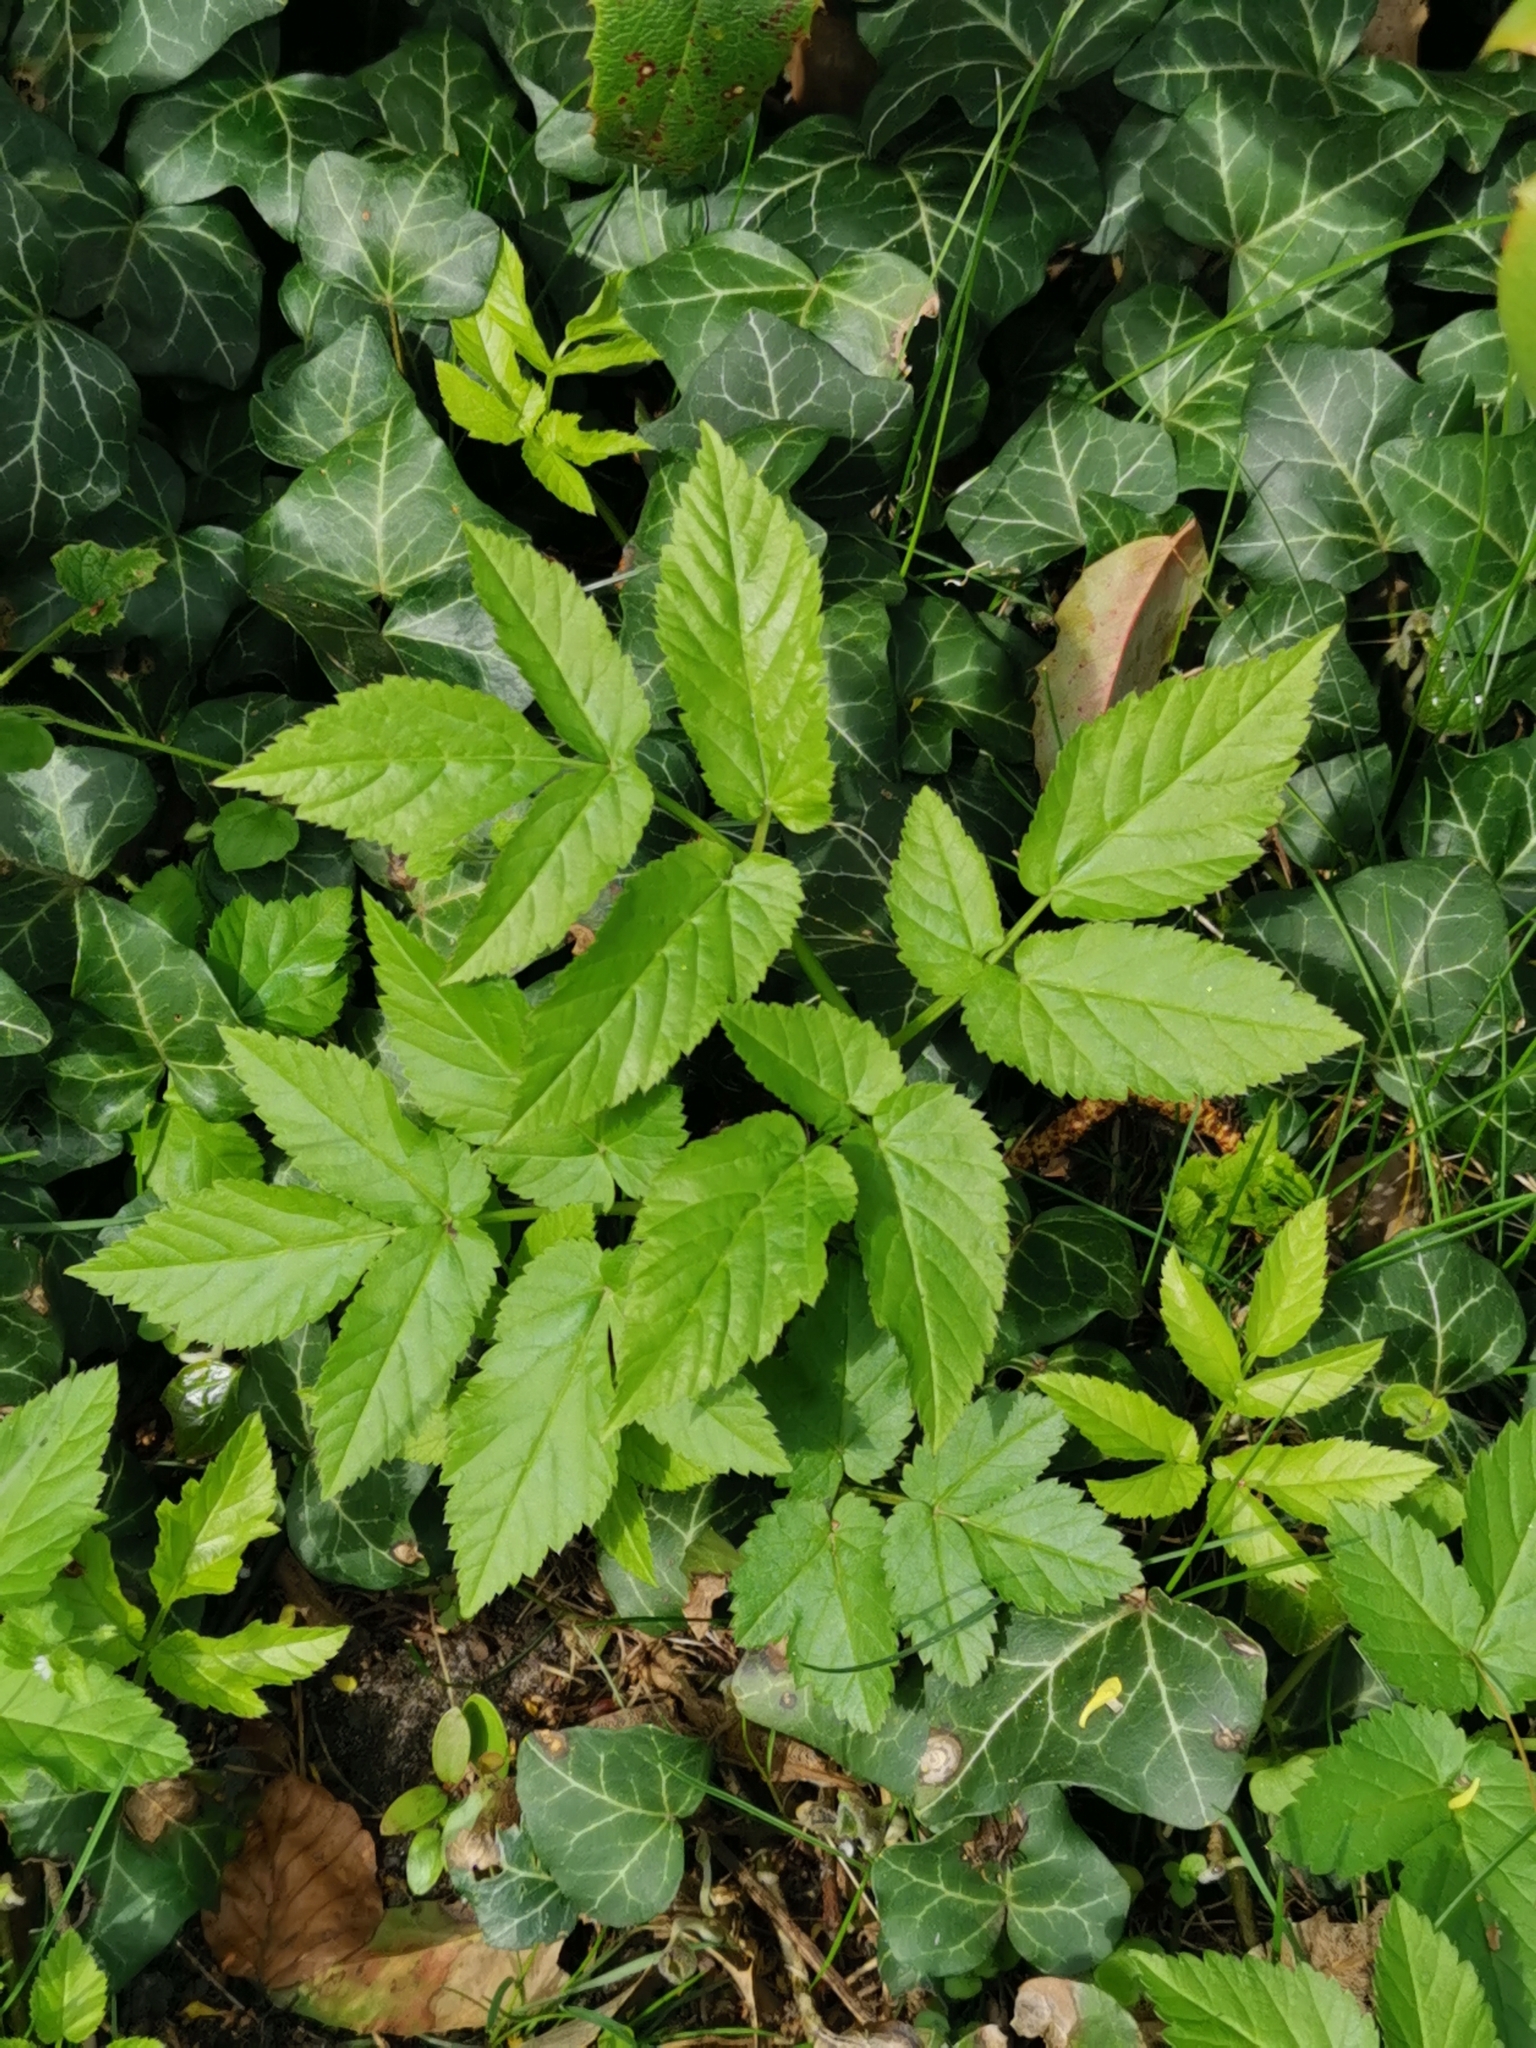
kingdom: Plantae
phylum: Tracheophyta
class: Magnoliopsida
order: Apiales
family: Apiaceae
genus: Aegopodium
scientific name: Aegopodium podagraria
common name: Ground-elder
